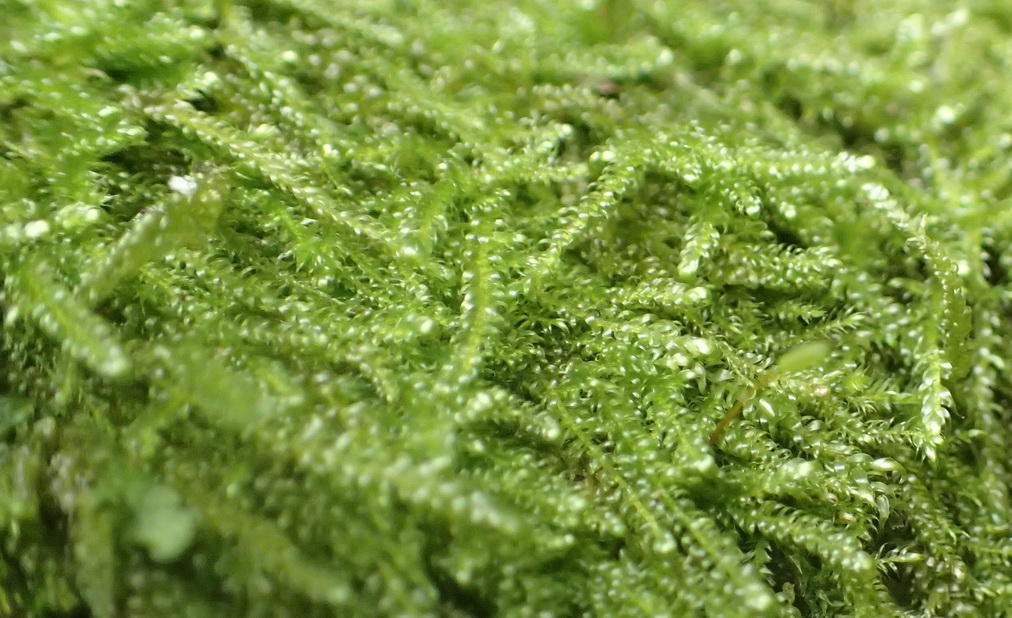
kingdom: Plantae
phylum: Bryophyta
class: Bryopsida
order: Hypnales
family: Hypnaceae
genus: Ectropothecium
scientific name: Ectropothecium regulare
